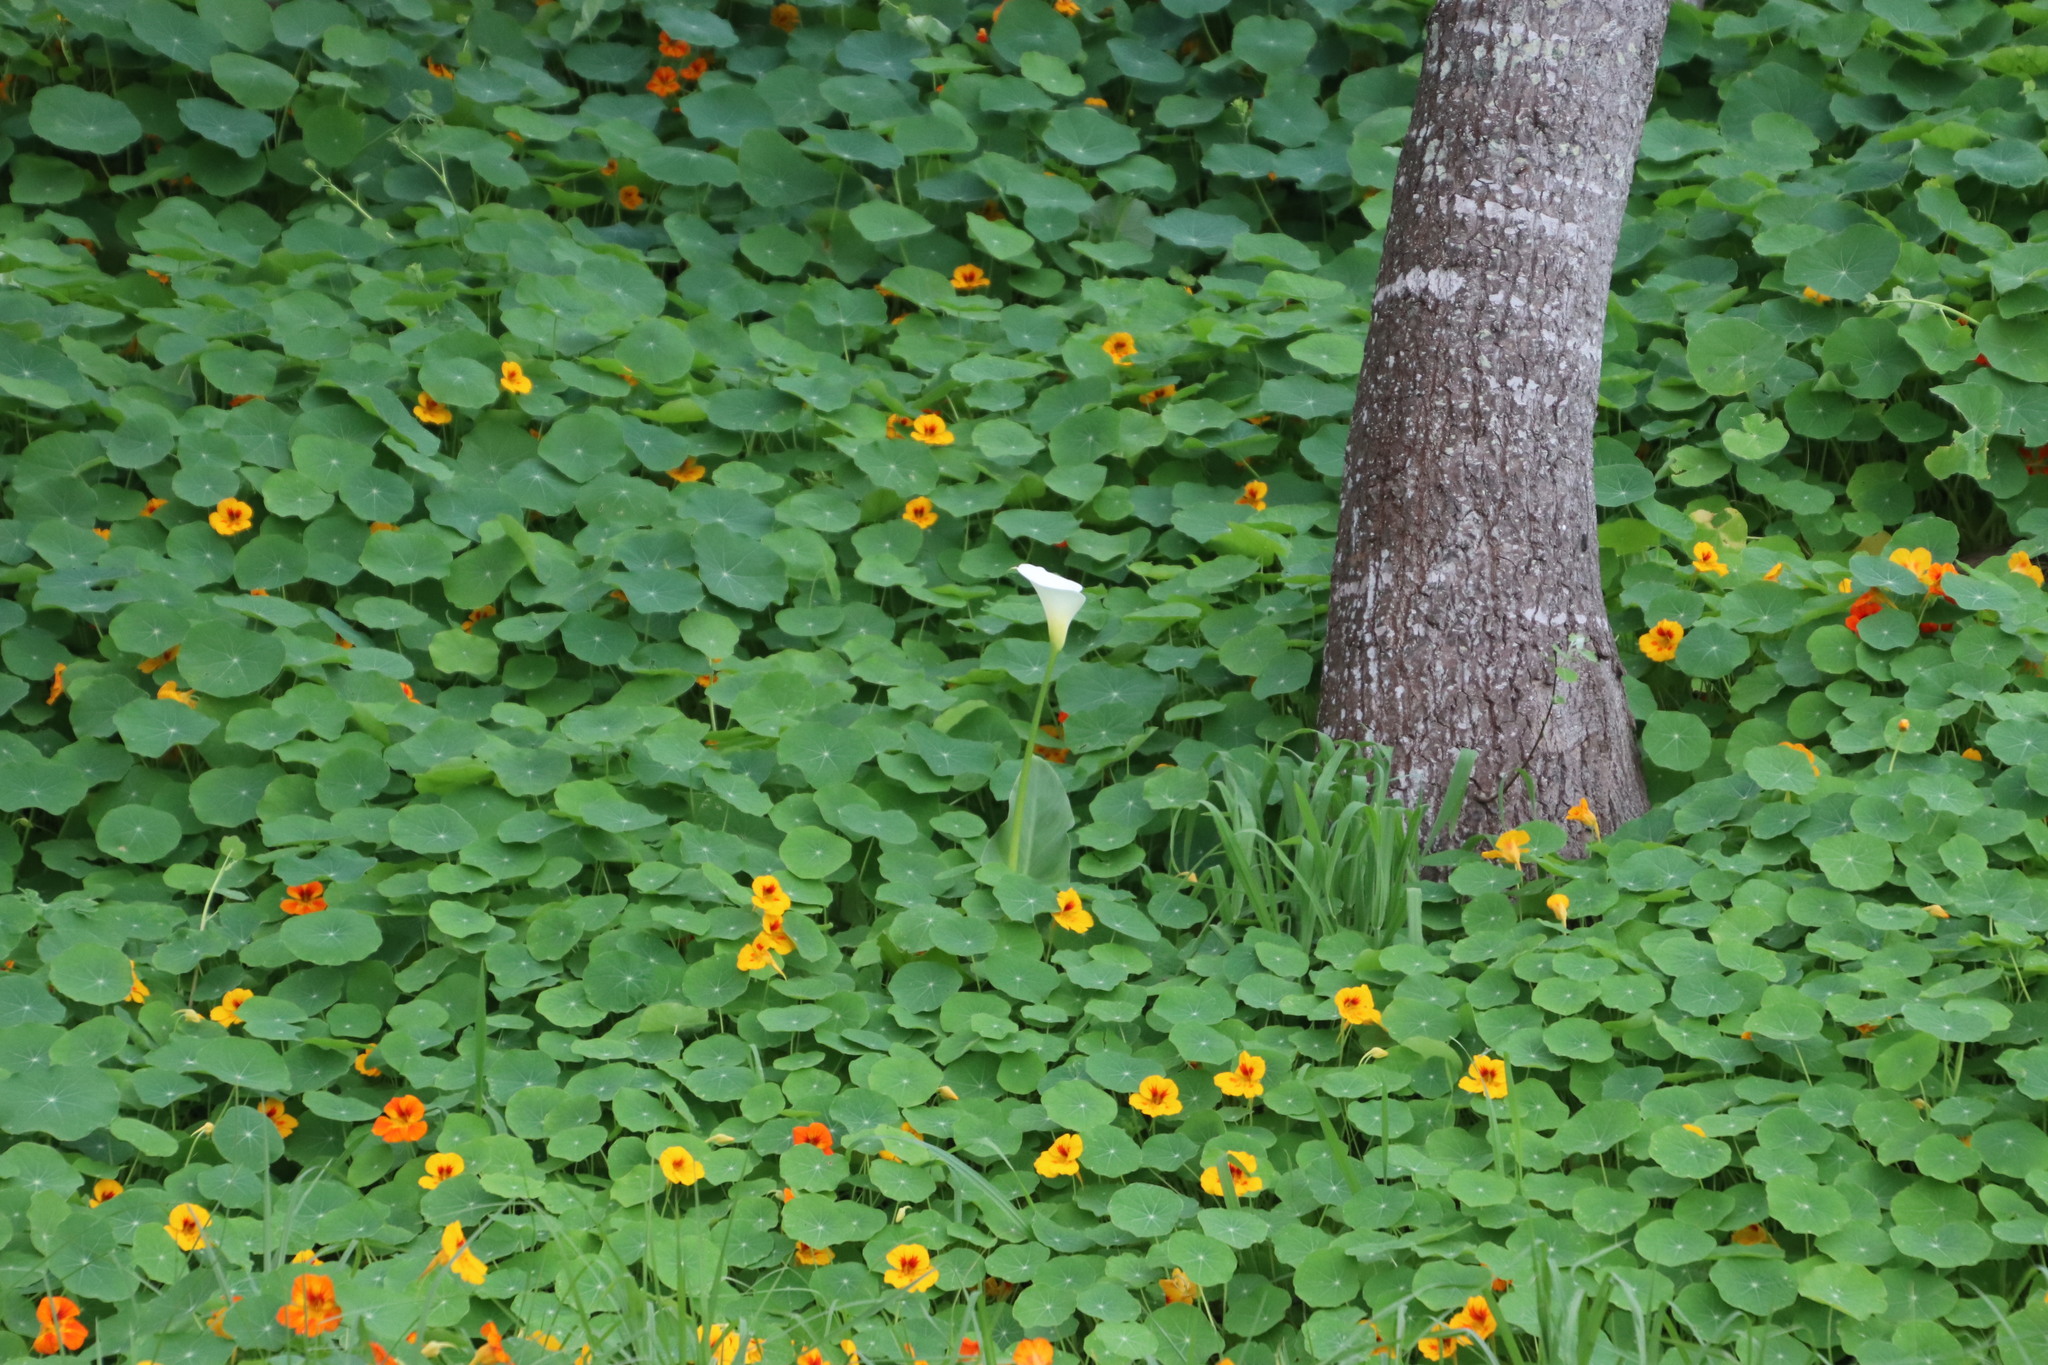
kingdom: Plantae
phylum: Tracheophyta
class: Liliopsida
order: Alismatales
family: Araceae
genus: Zantedeschia
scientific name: Zantedeschia aethiopica
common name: Altar-lily
